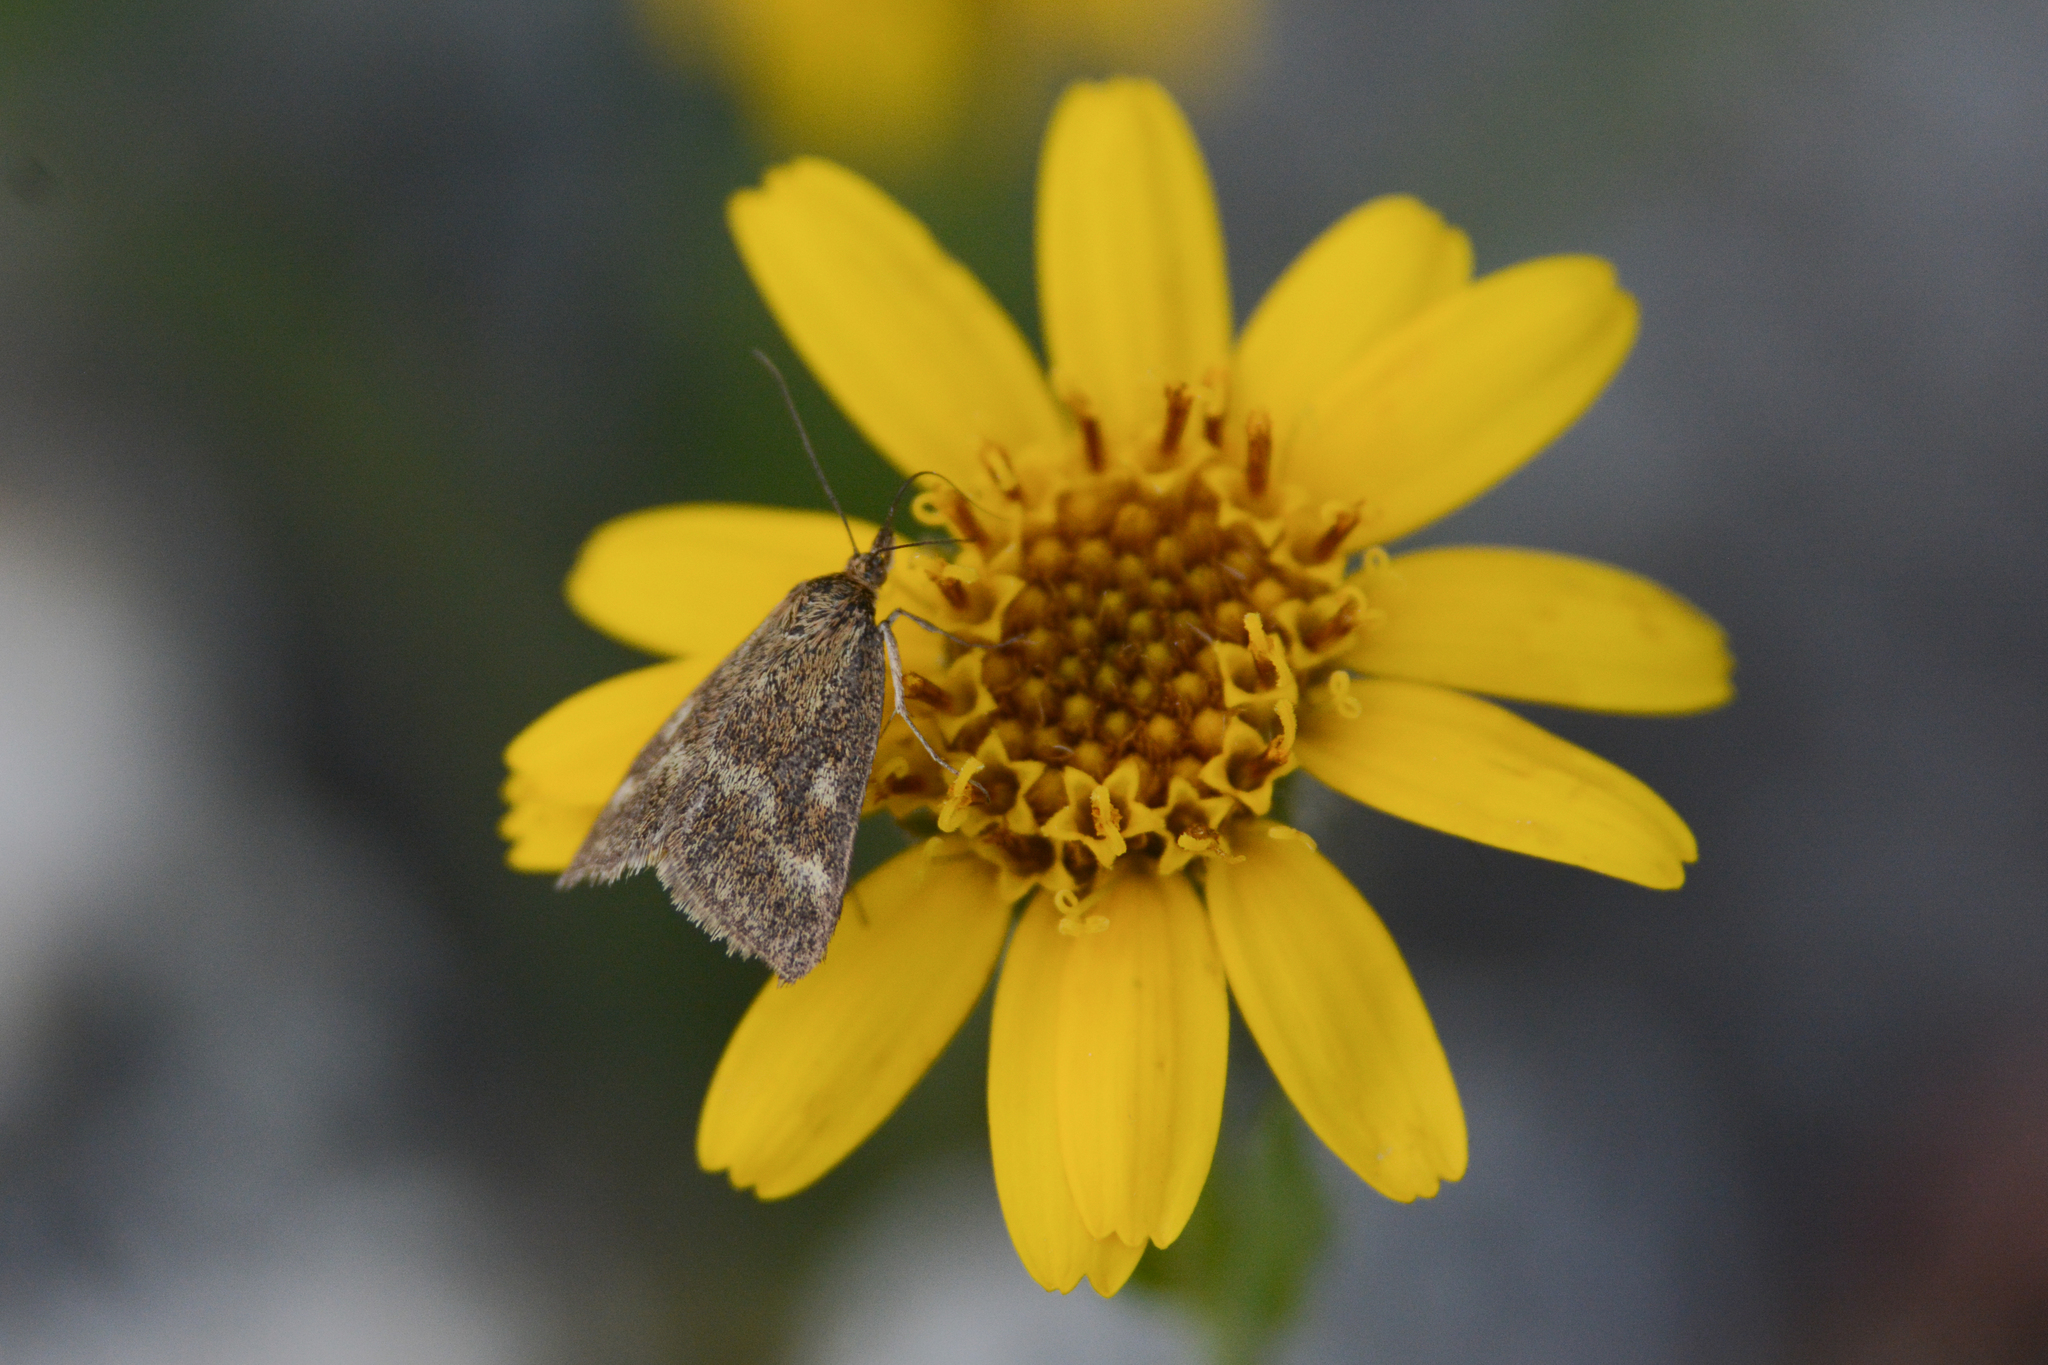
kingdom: Animalia
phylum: Arthropoda
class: Insecta
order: Lepidoptera
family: Crambidae
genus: Pyrausta
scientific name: Pyrausta unifascialis
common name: One-banded pyrausta
